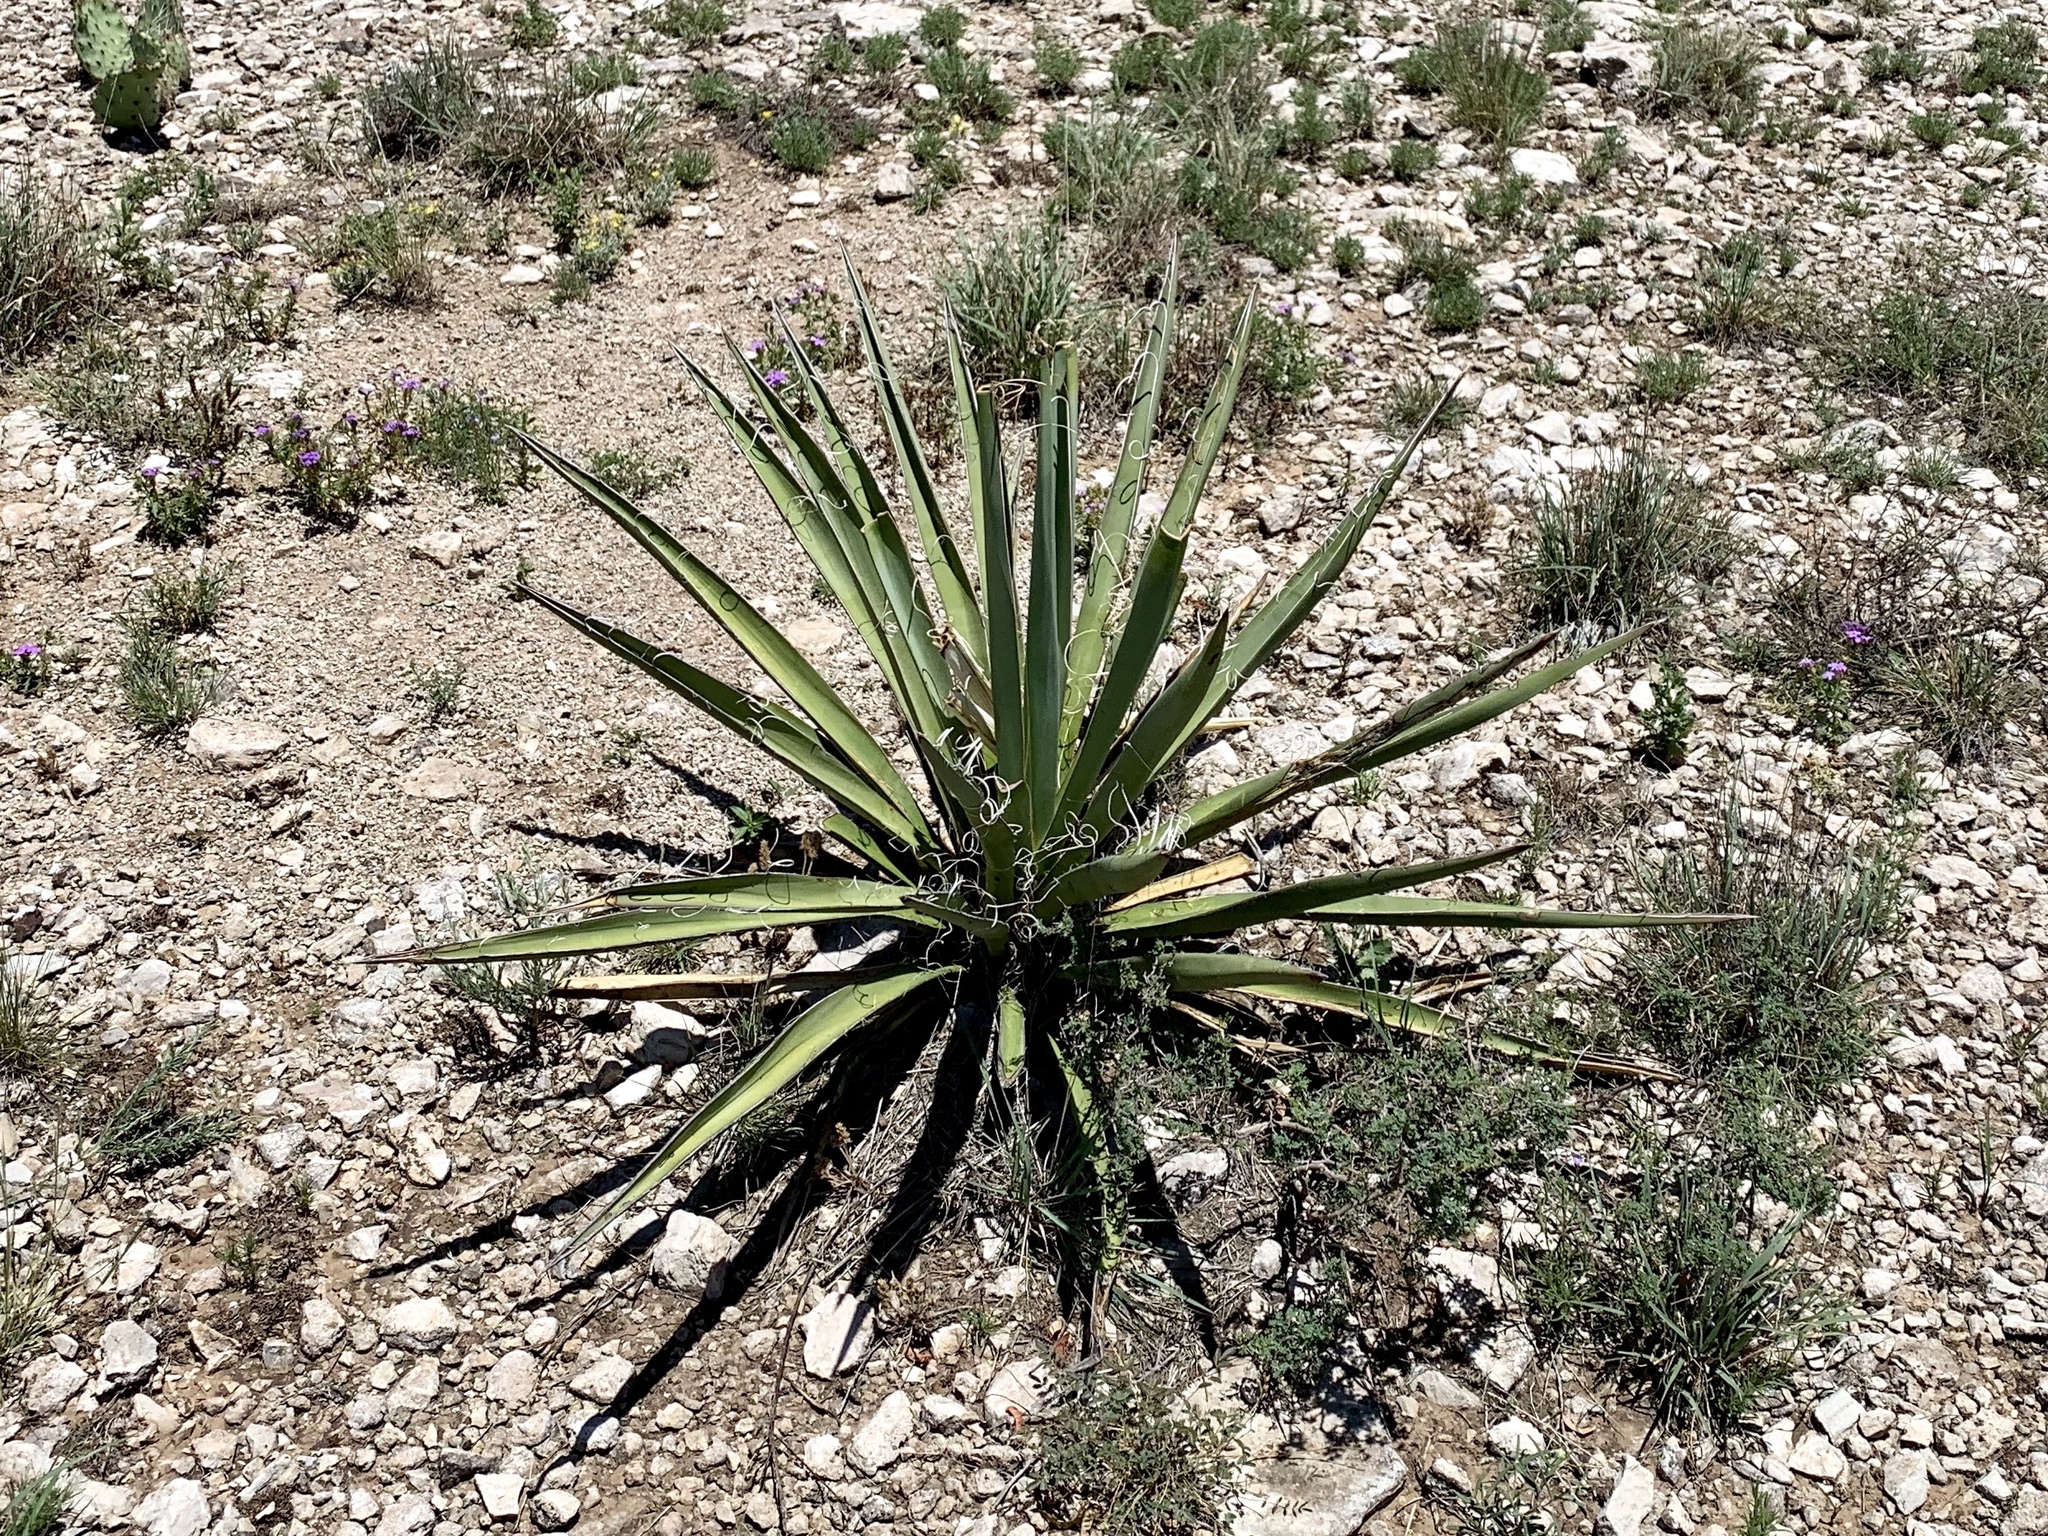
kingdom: Plantae
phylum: Tracheophyta
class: Liliopsida
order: Asparagales
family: Asparagaceae
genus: Yucca
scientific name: Yucca baccata
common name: Banana yucca
